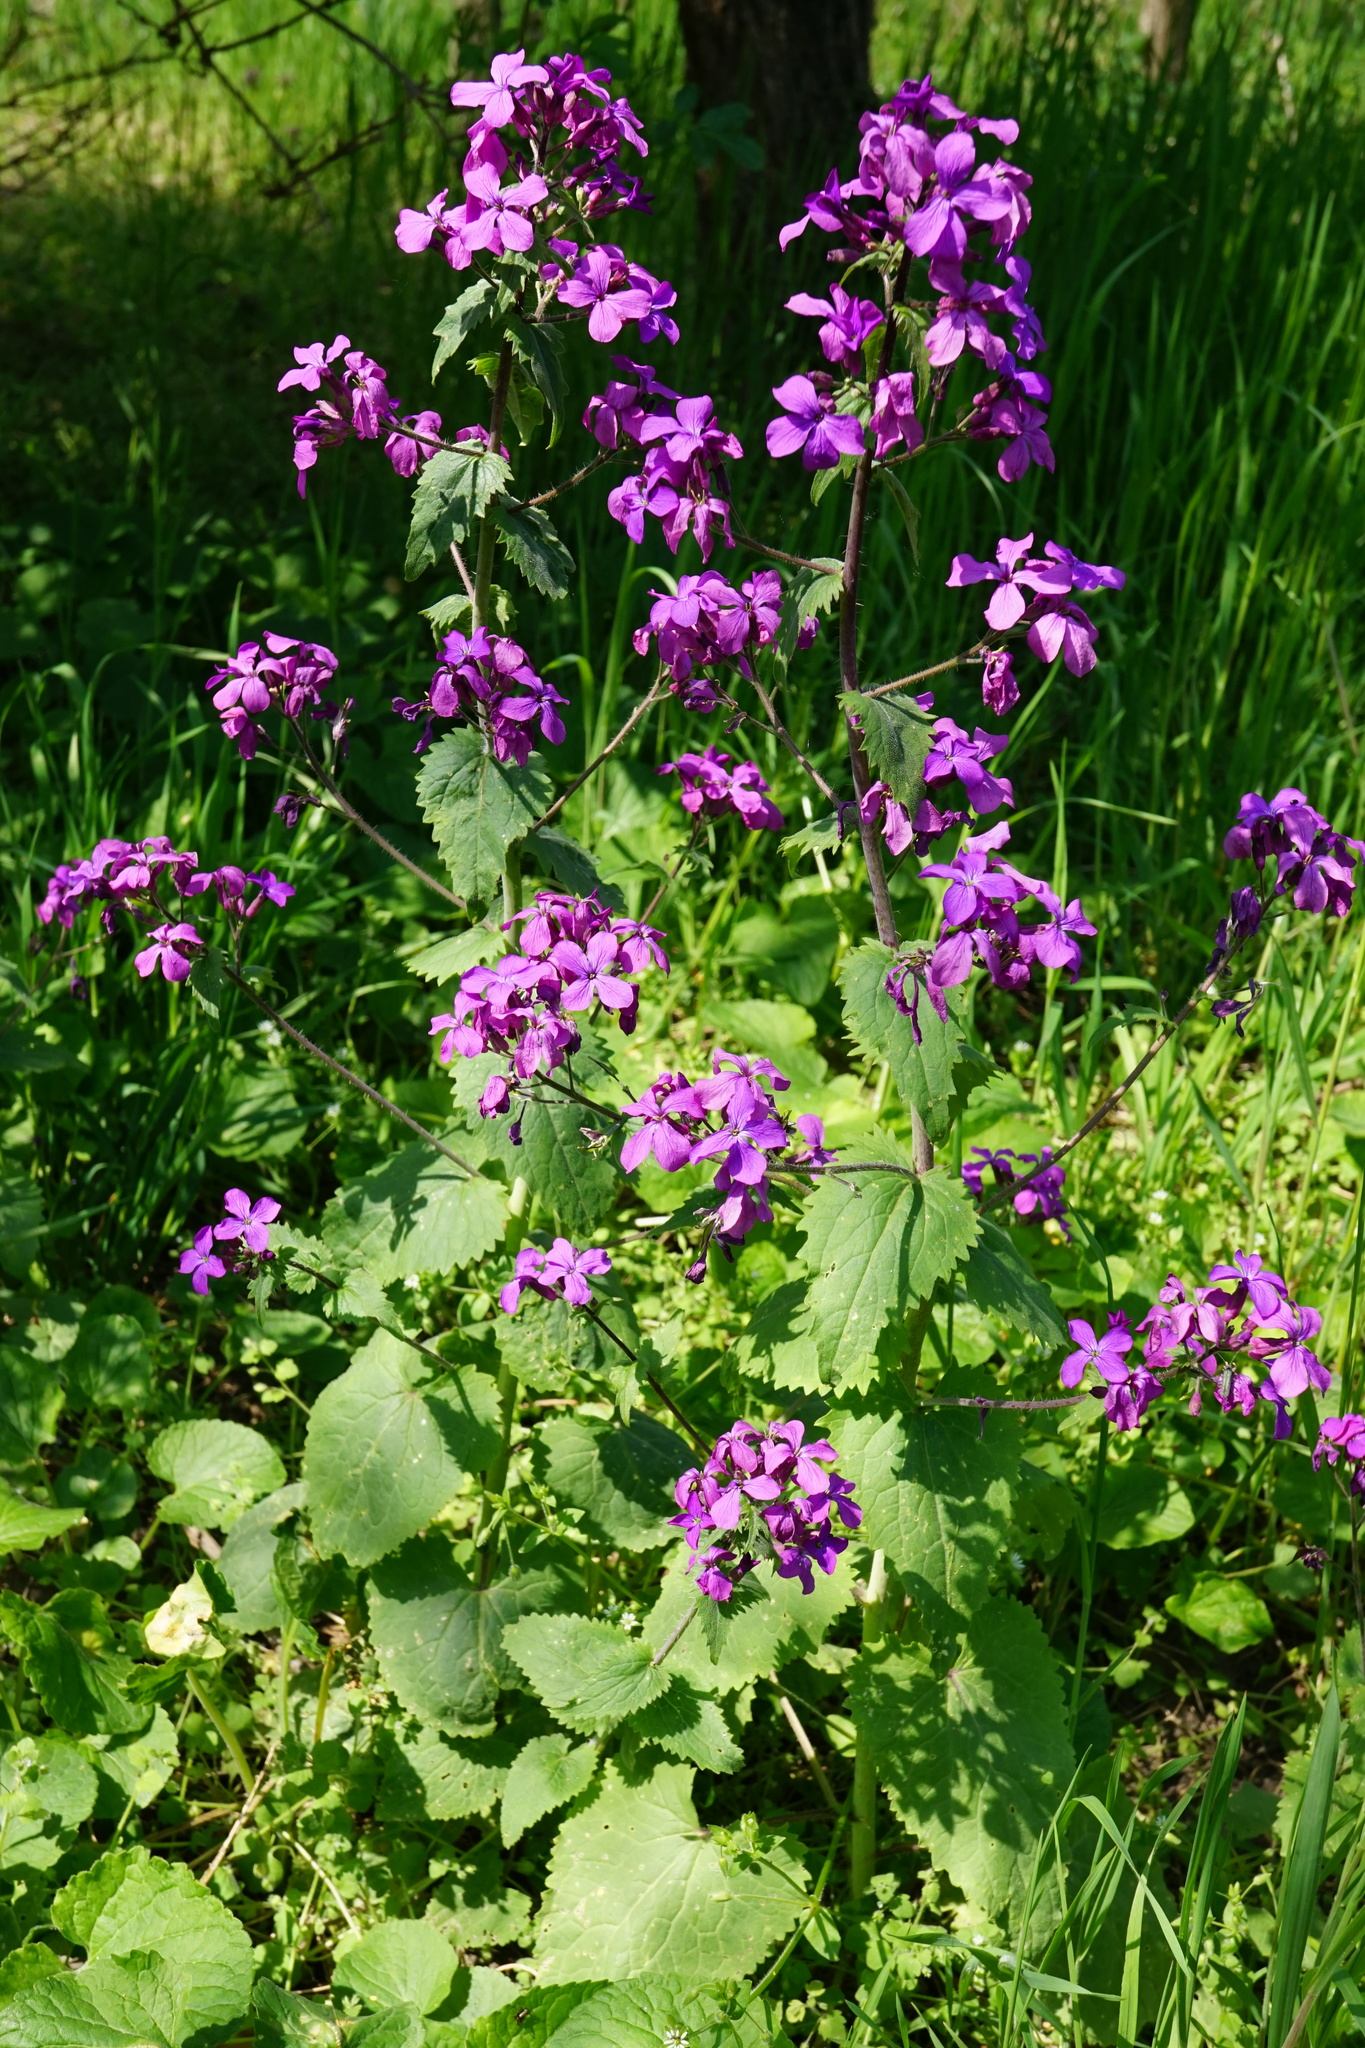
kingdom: Plantae
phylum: Tracheophyta
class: Magnoliopsida
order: Brassicales
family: Brassicaceae
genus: Lunaria
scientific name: Lunaria annua
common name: Honesty
